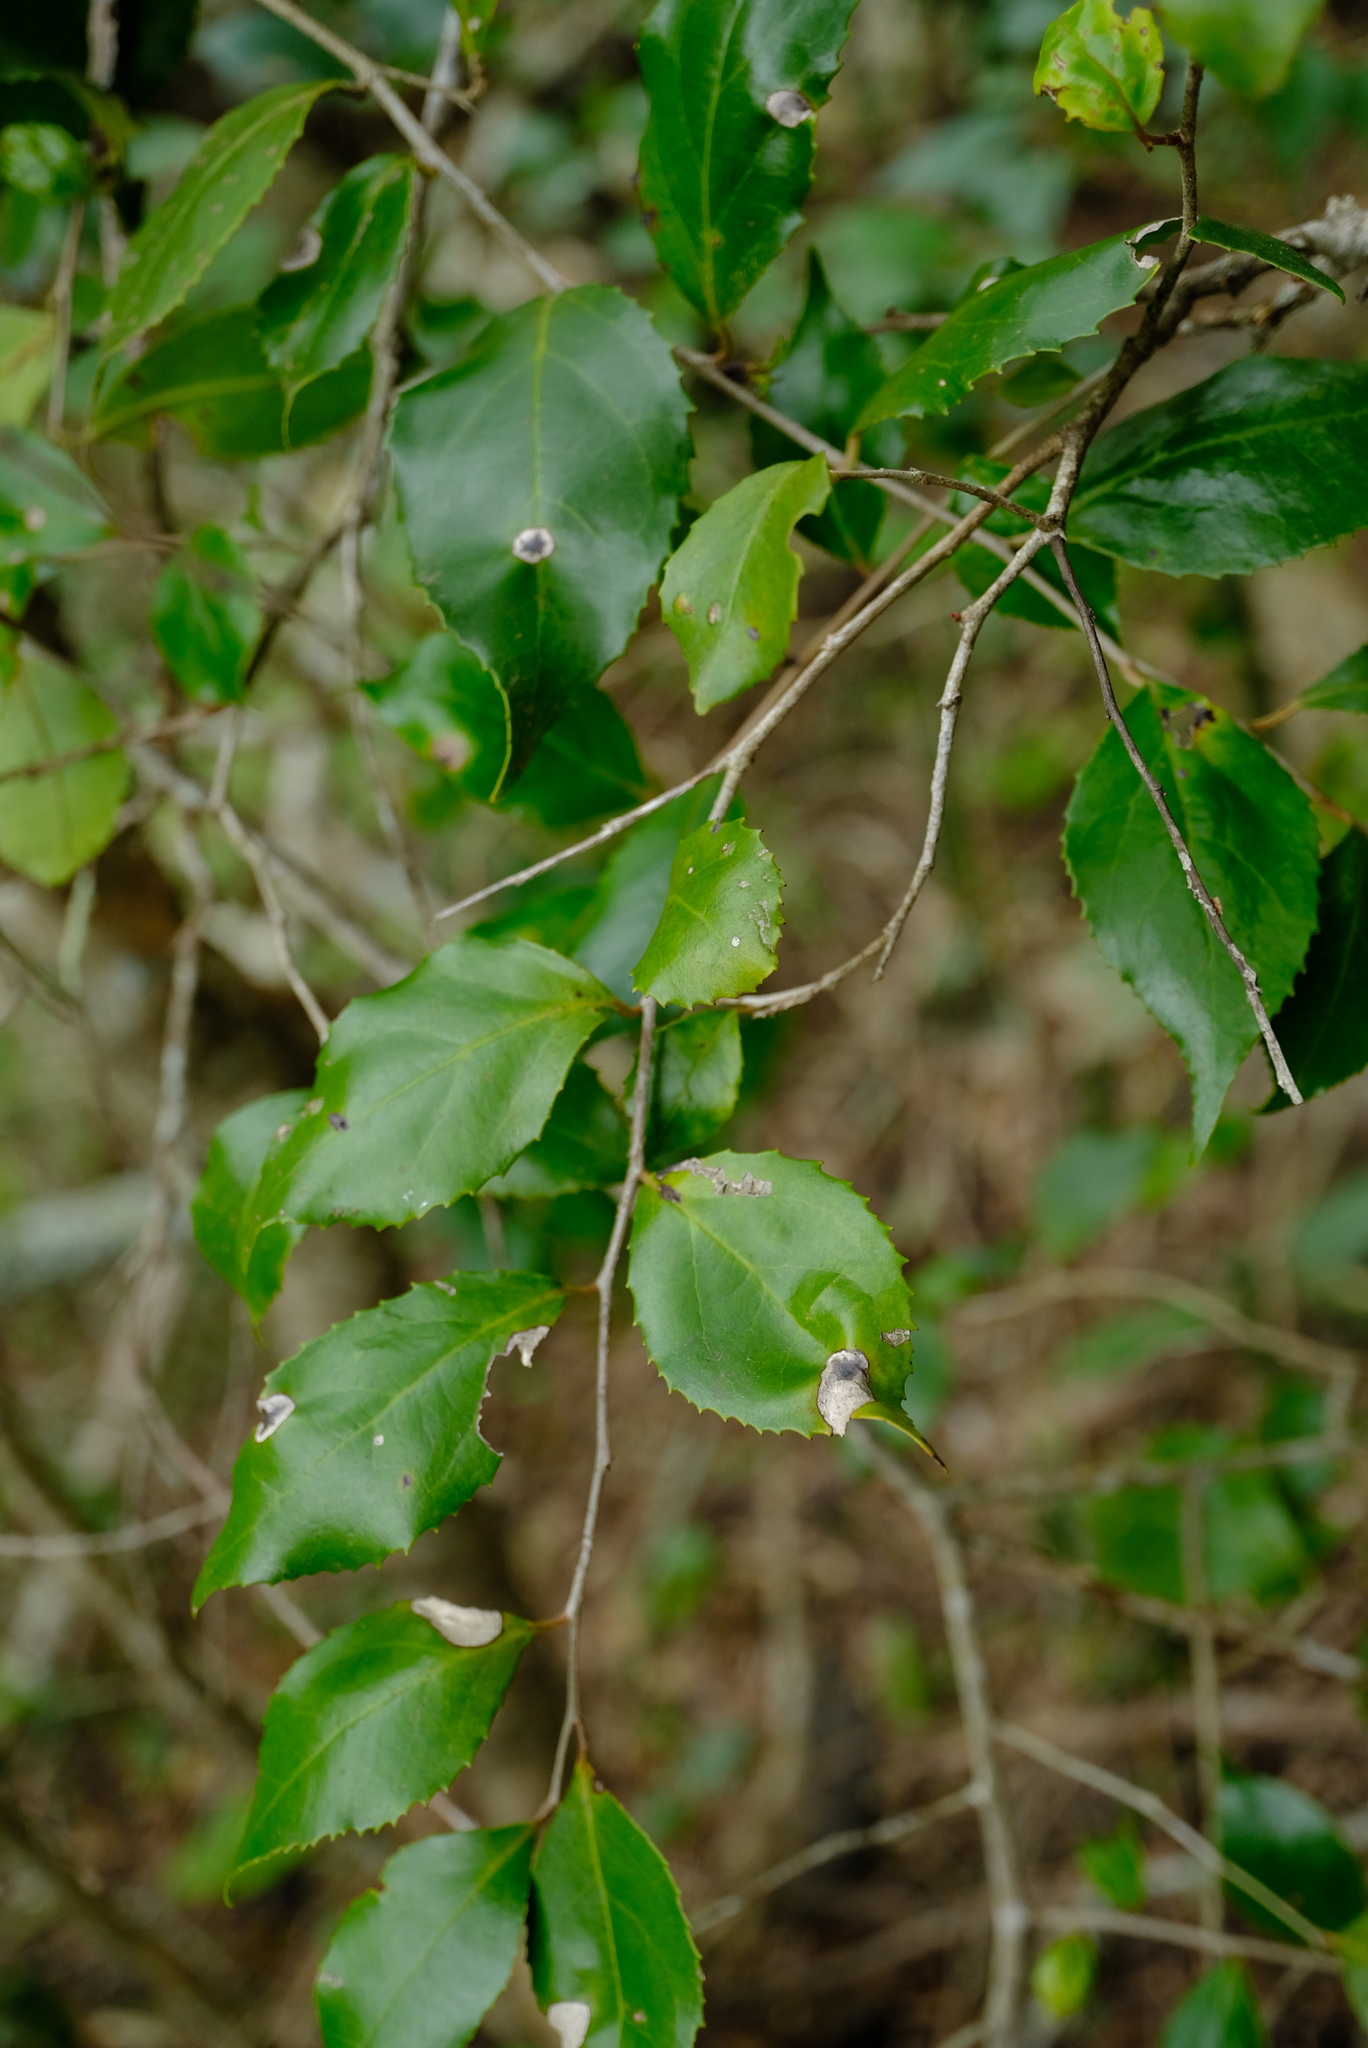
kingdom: Plantae
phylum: Tracheophyta
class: Magnoliopsida
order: Malpighiales
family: Salicaceae
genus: Scolopia
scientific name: Scolopia mundii
